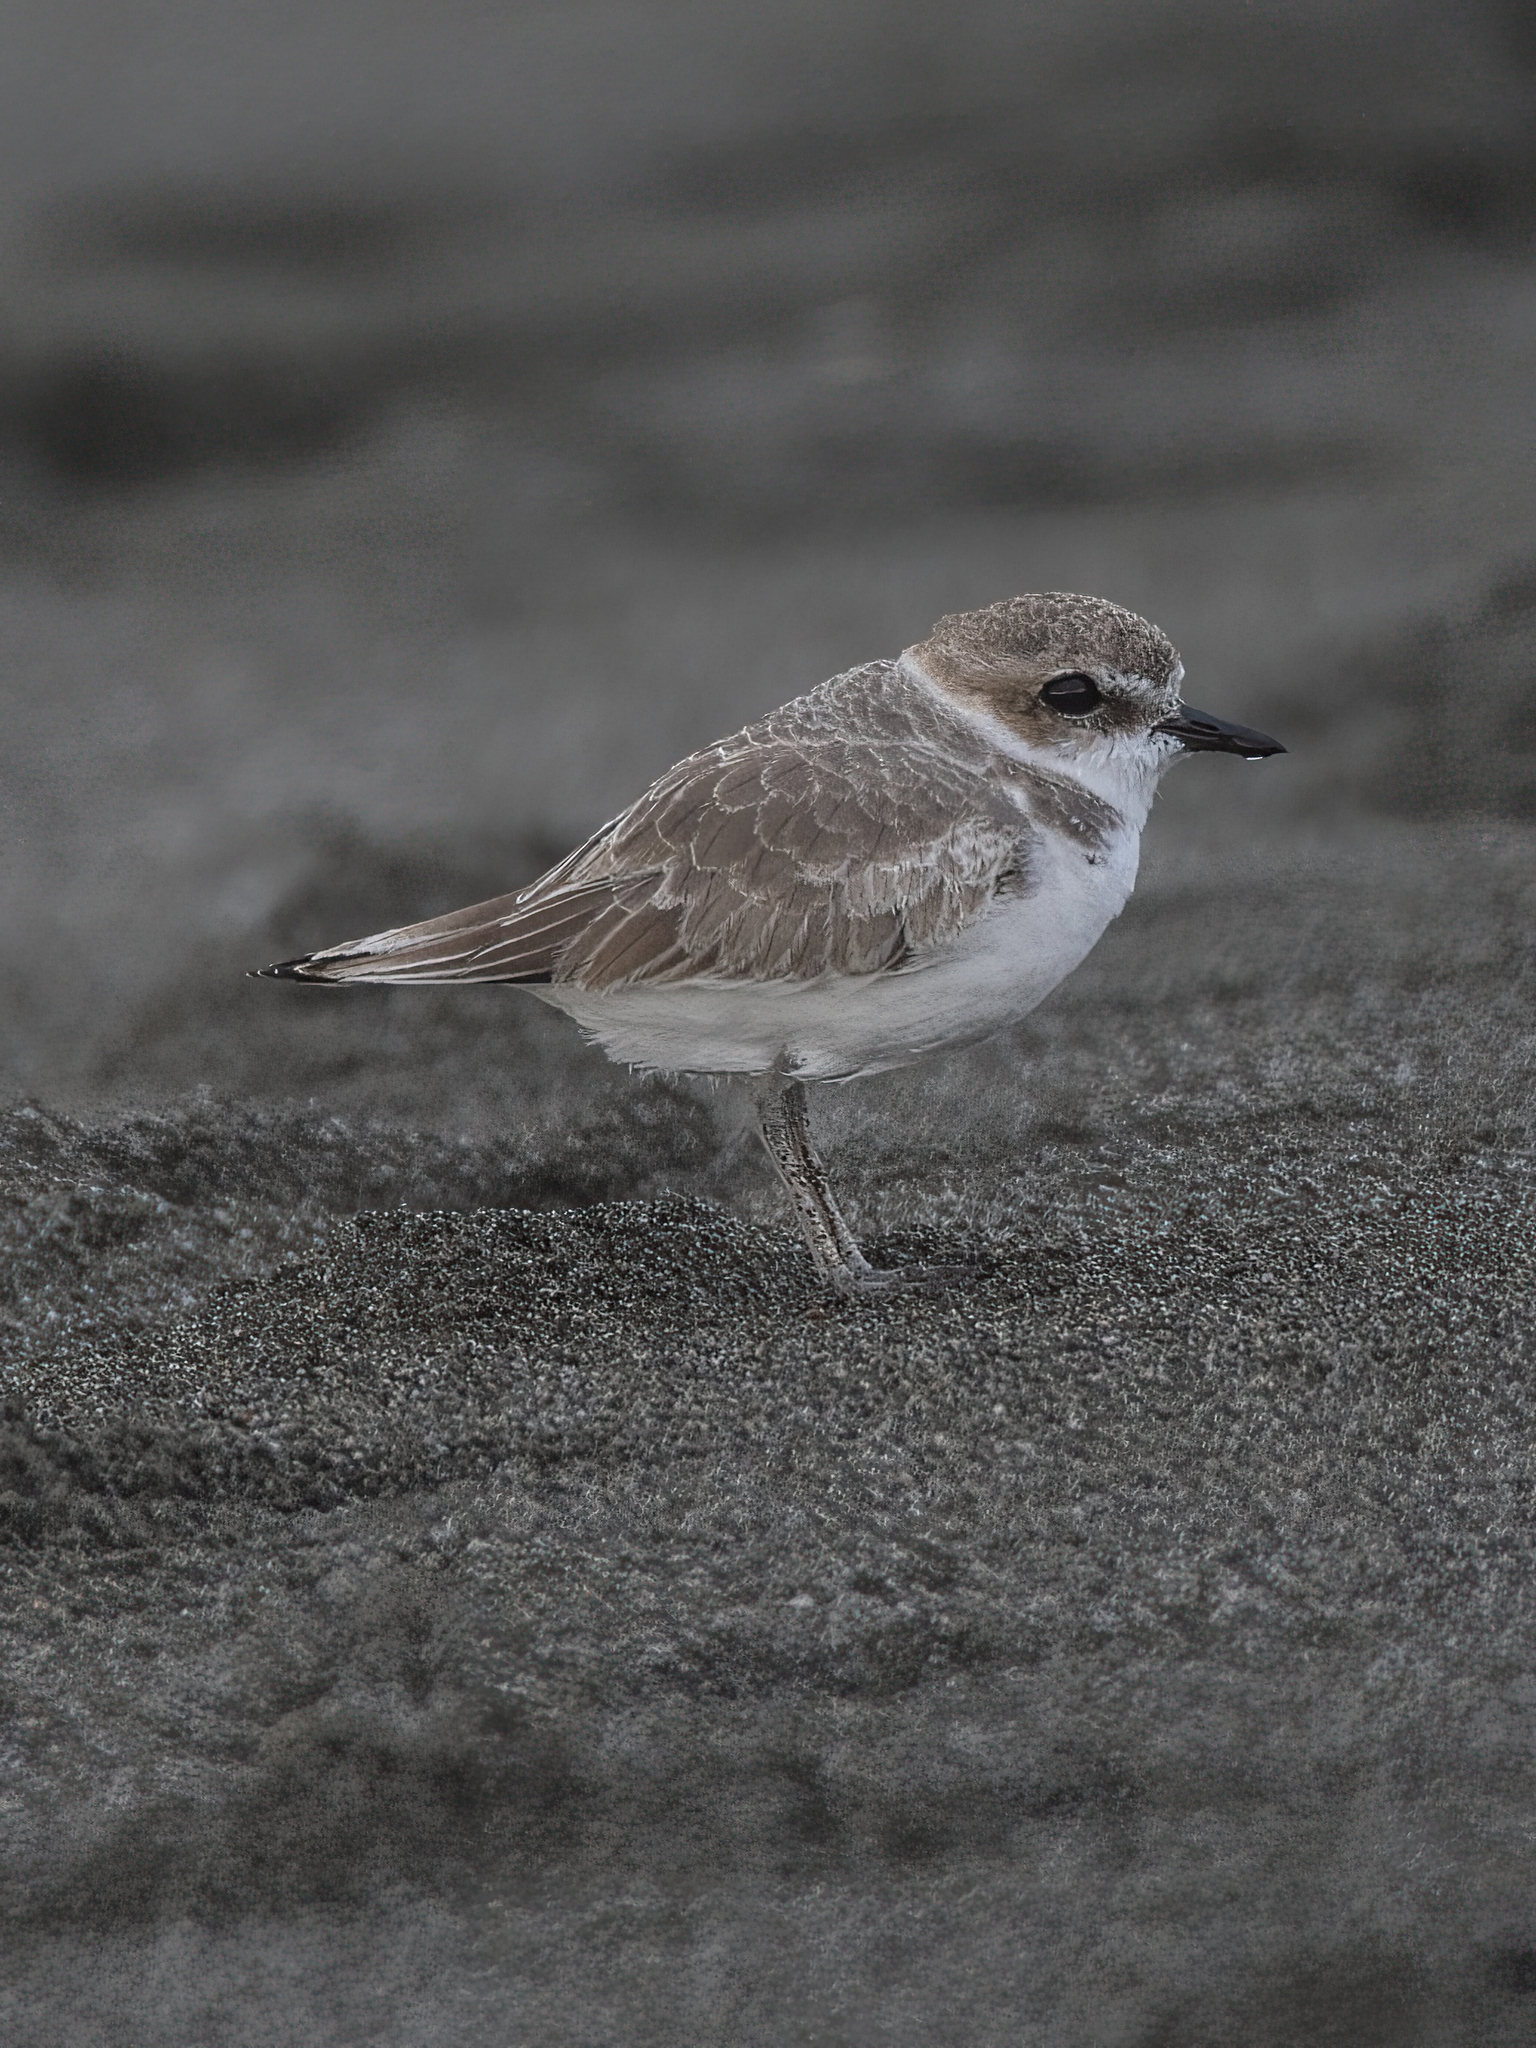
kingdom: Animalia
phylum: Chordata
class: Aves
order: Charadriiformes
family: Charadriidae
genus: Anarhynchus
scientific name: Anarhynchus
